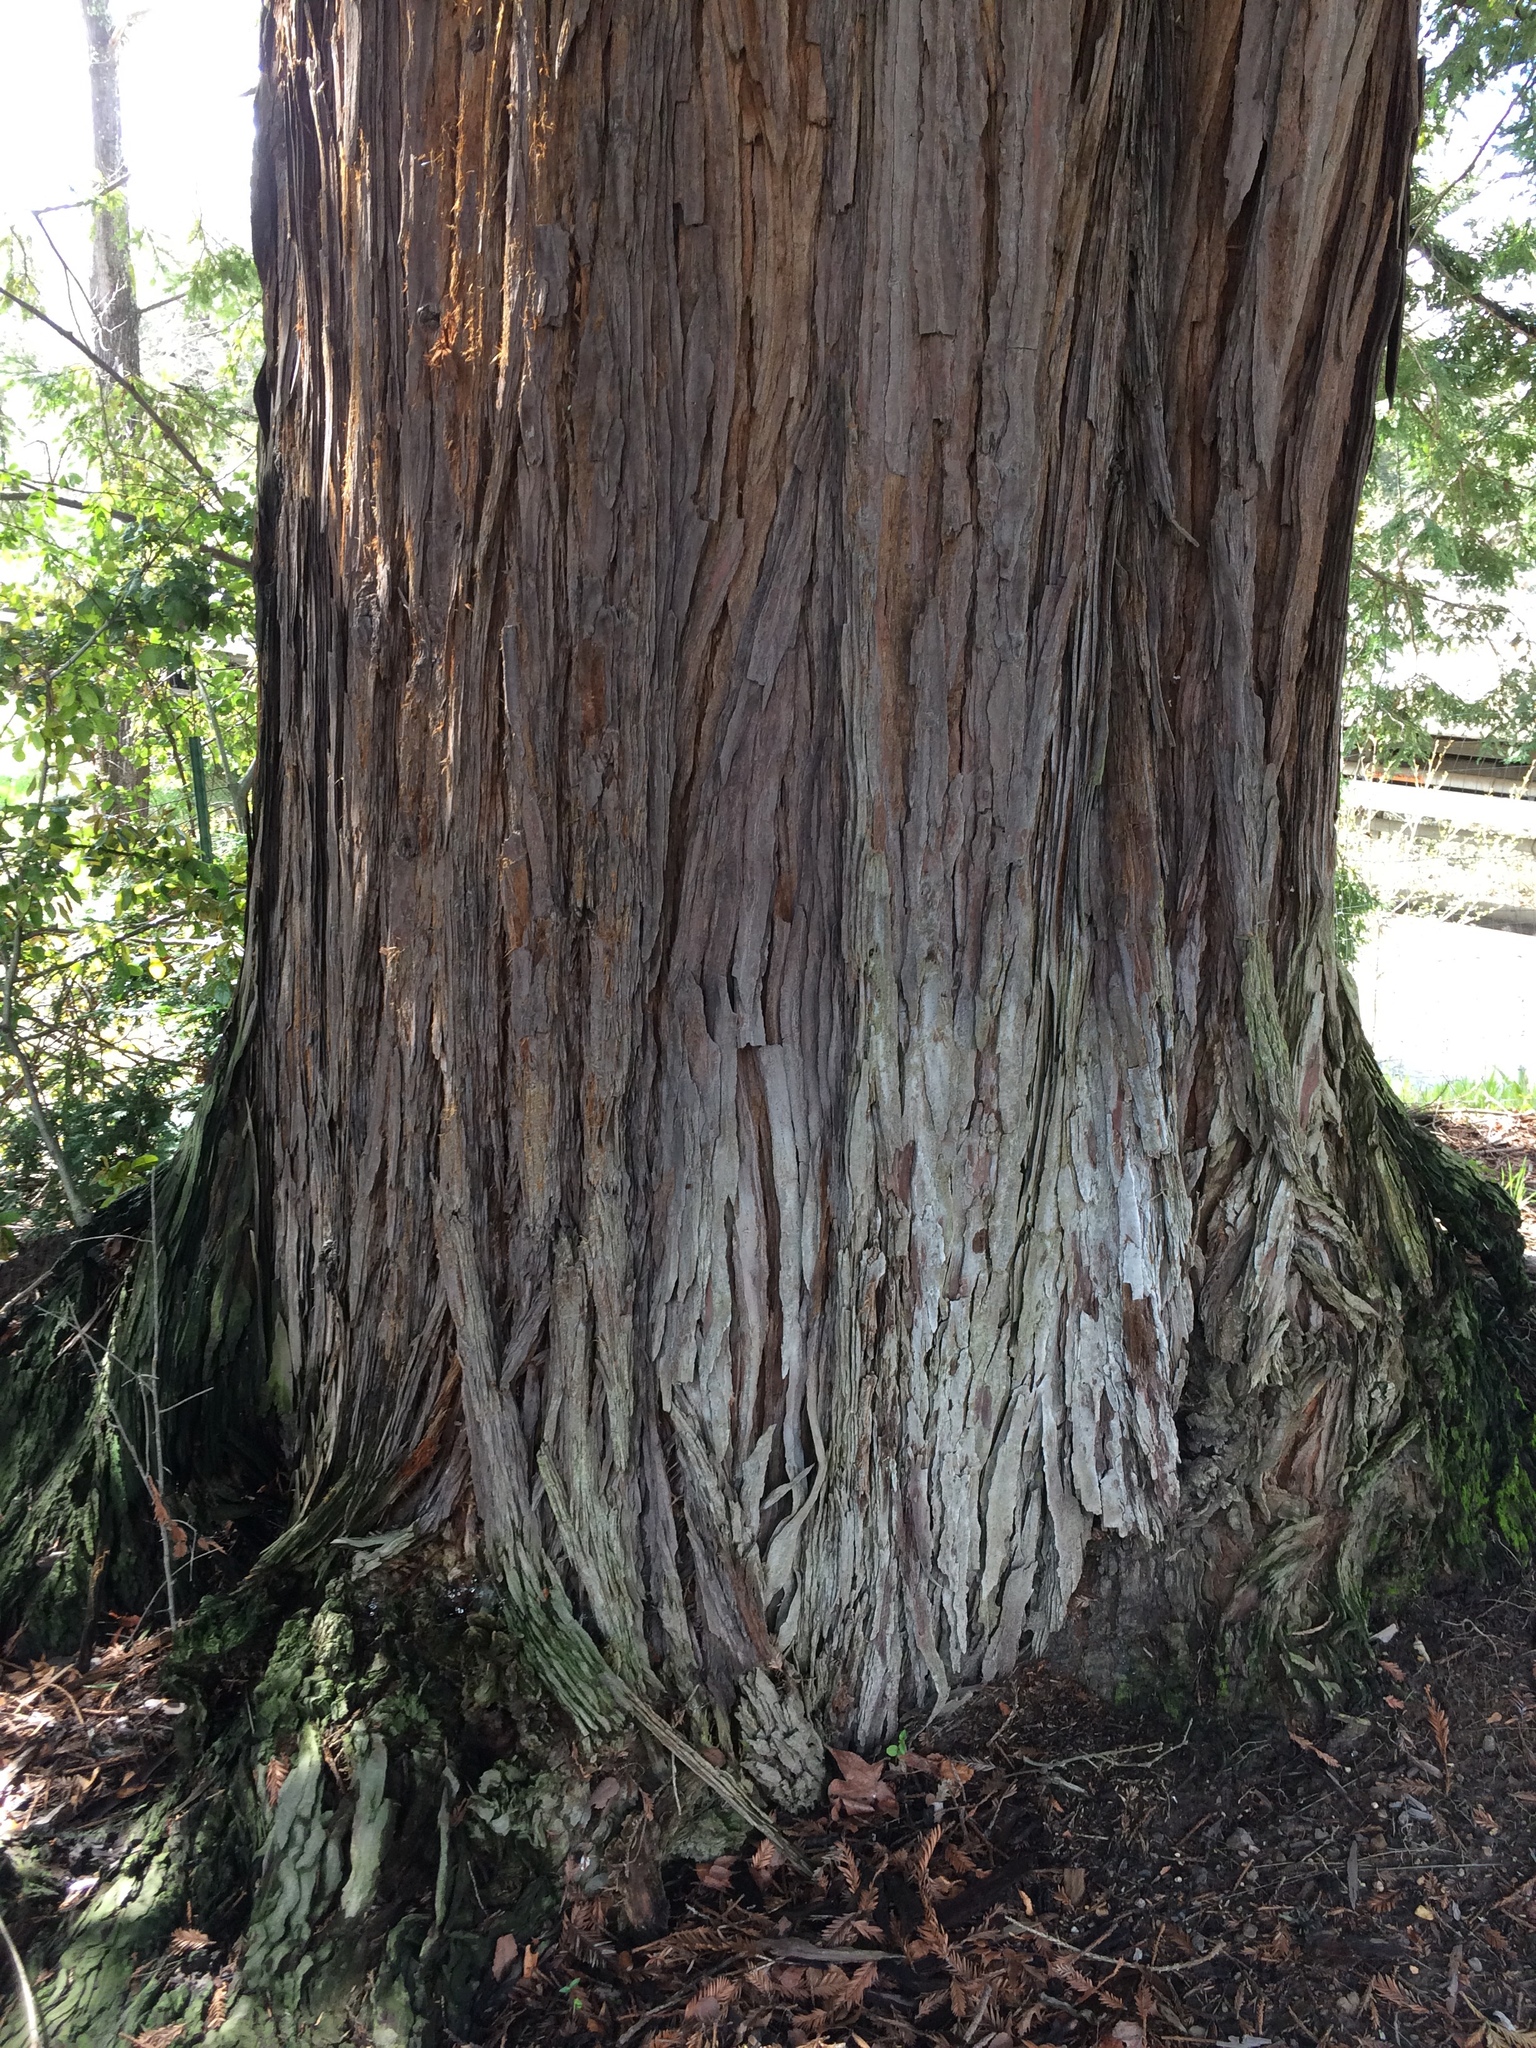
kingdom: Plantae
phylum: Tracheophyta
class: Pinopsida
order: Pinales
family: Cupressaceae
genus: Sequoia
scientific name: Sequoia sempervirens
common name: Coast redwood
